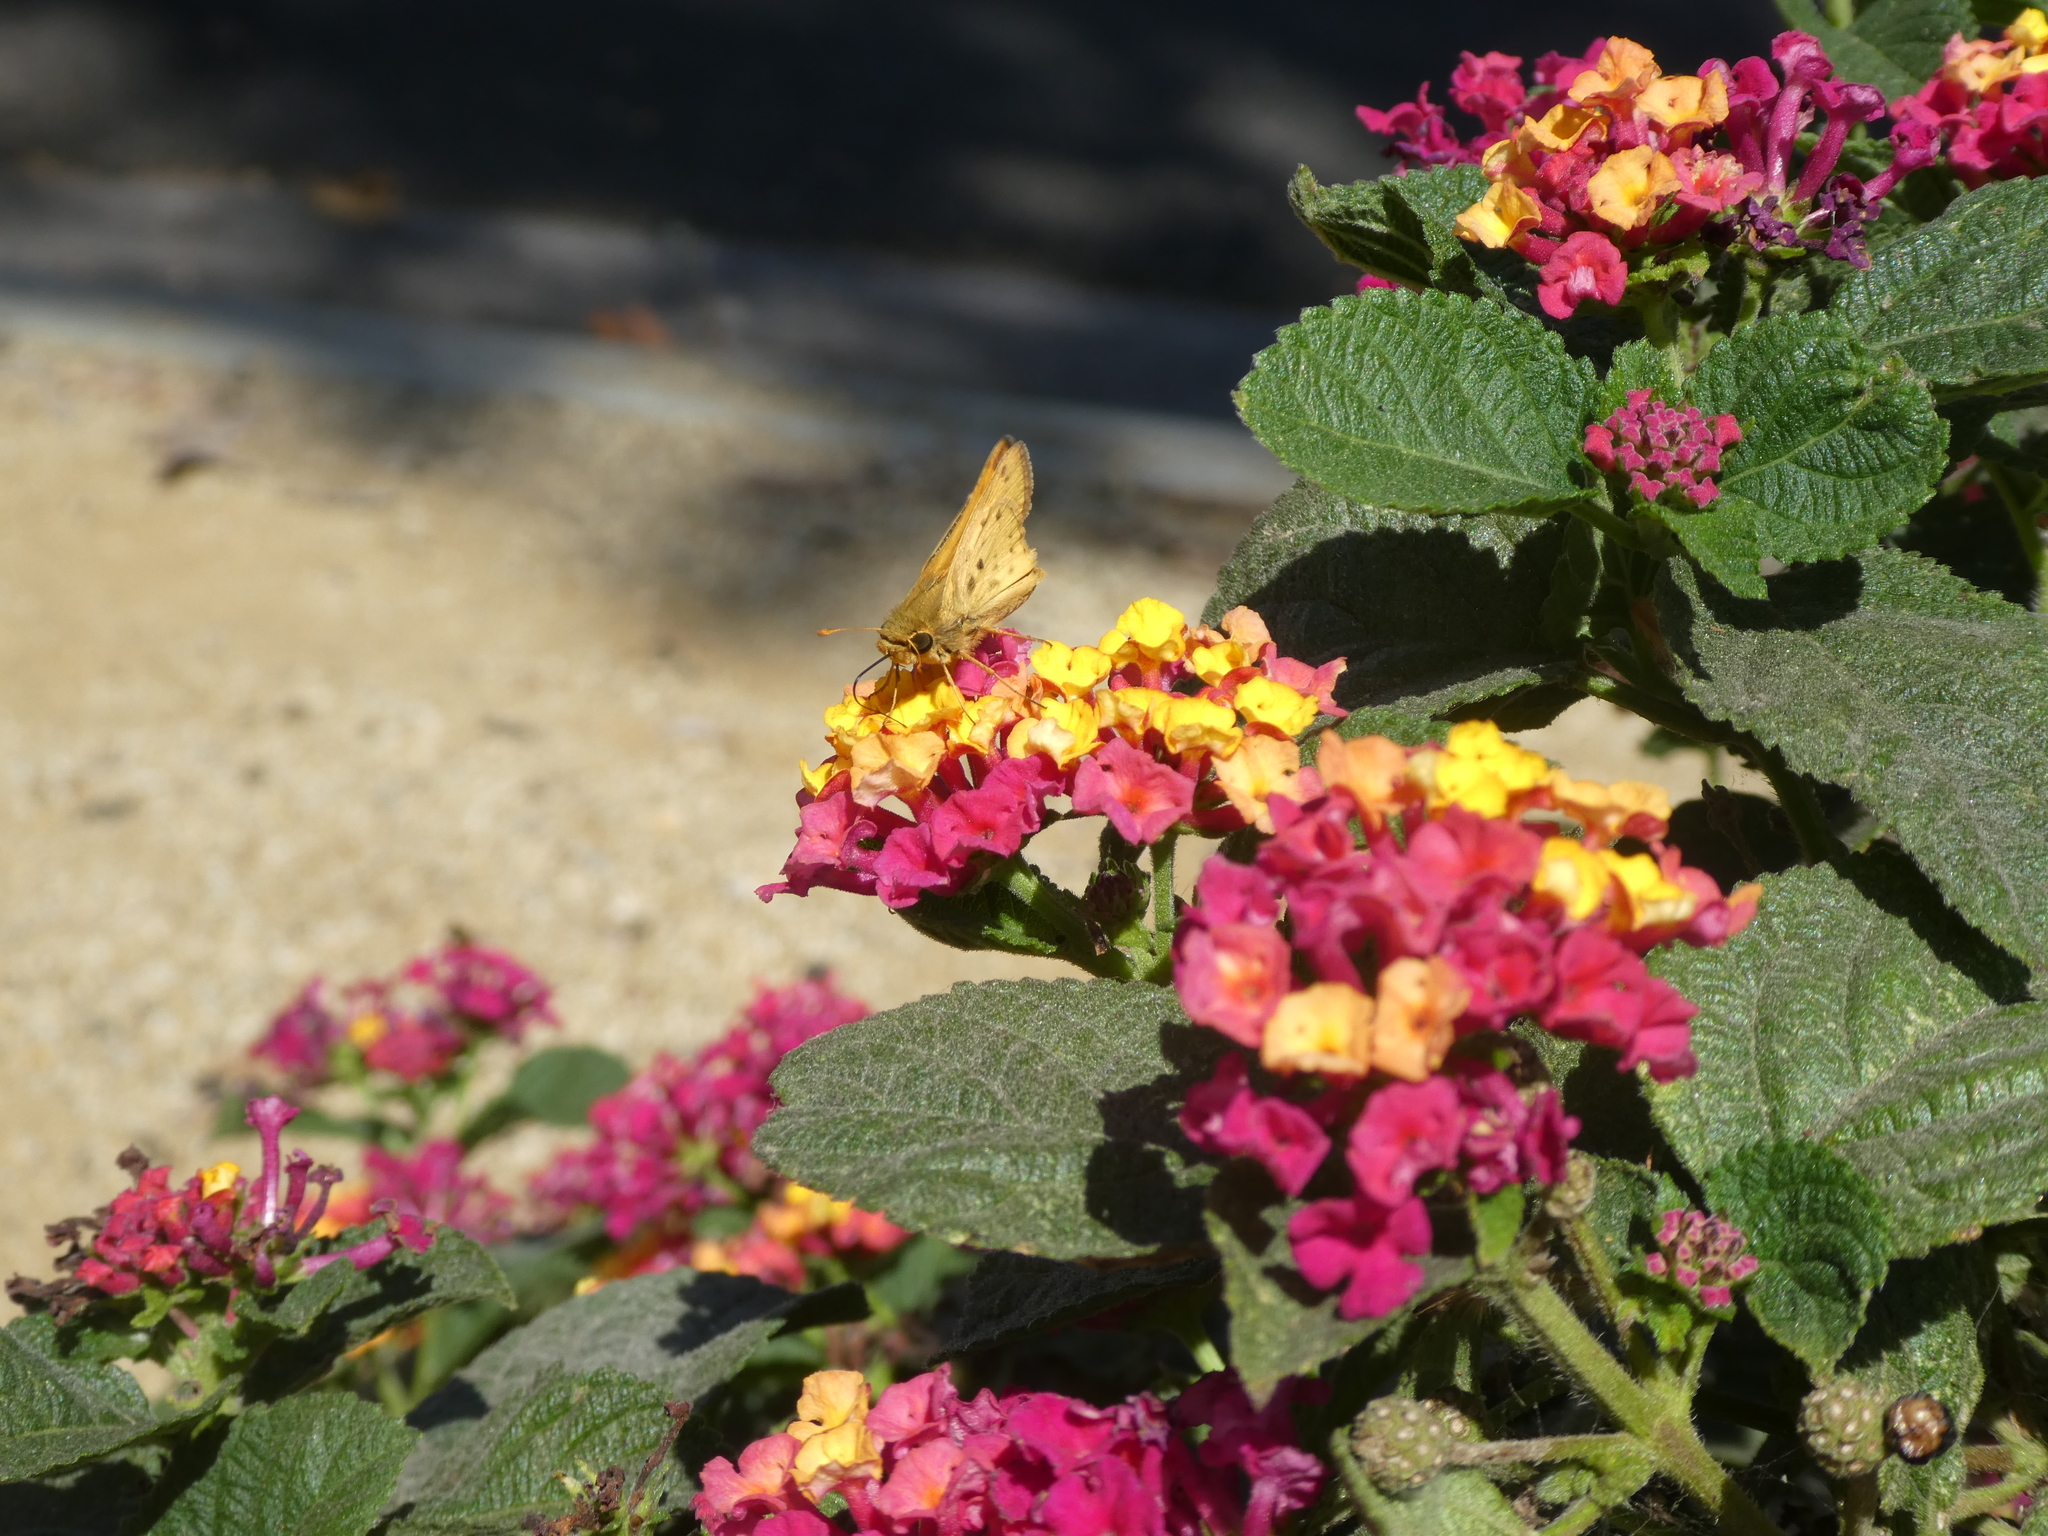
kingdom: Animalia
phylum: Arthropoda
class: Insecta
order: Lepidoptera
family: Hesperiidae
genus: Hylephila
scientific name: Hylephila phyleus
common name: Fiery skipper
